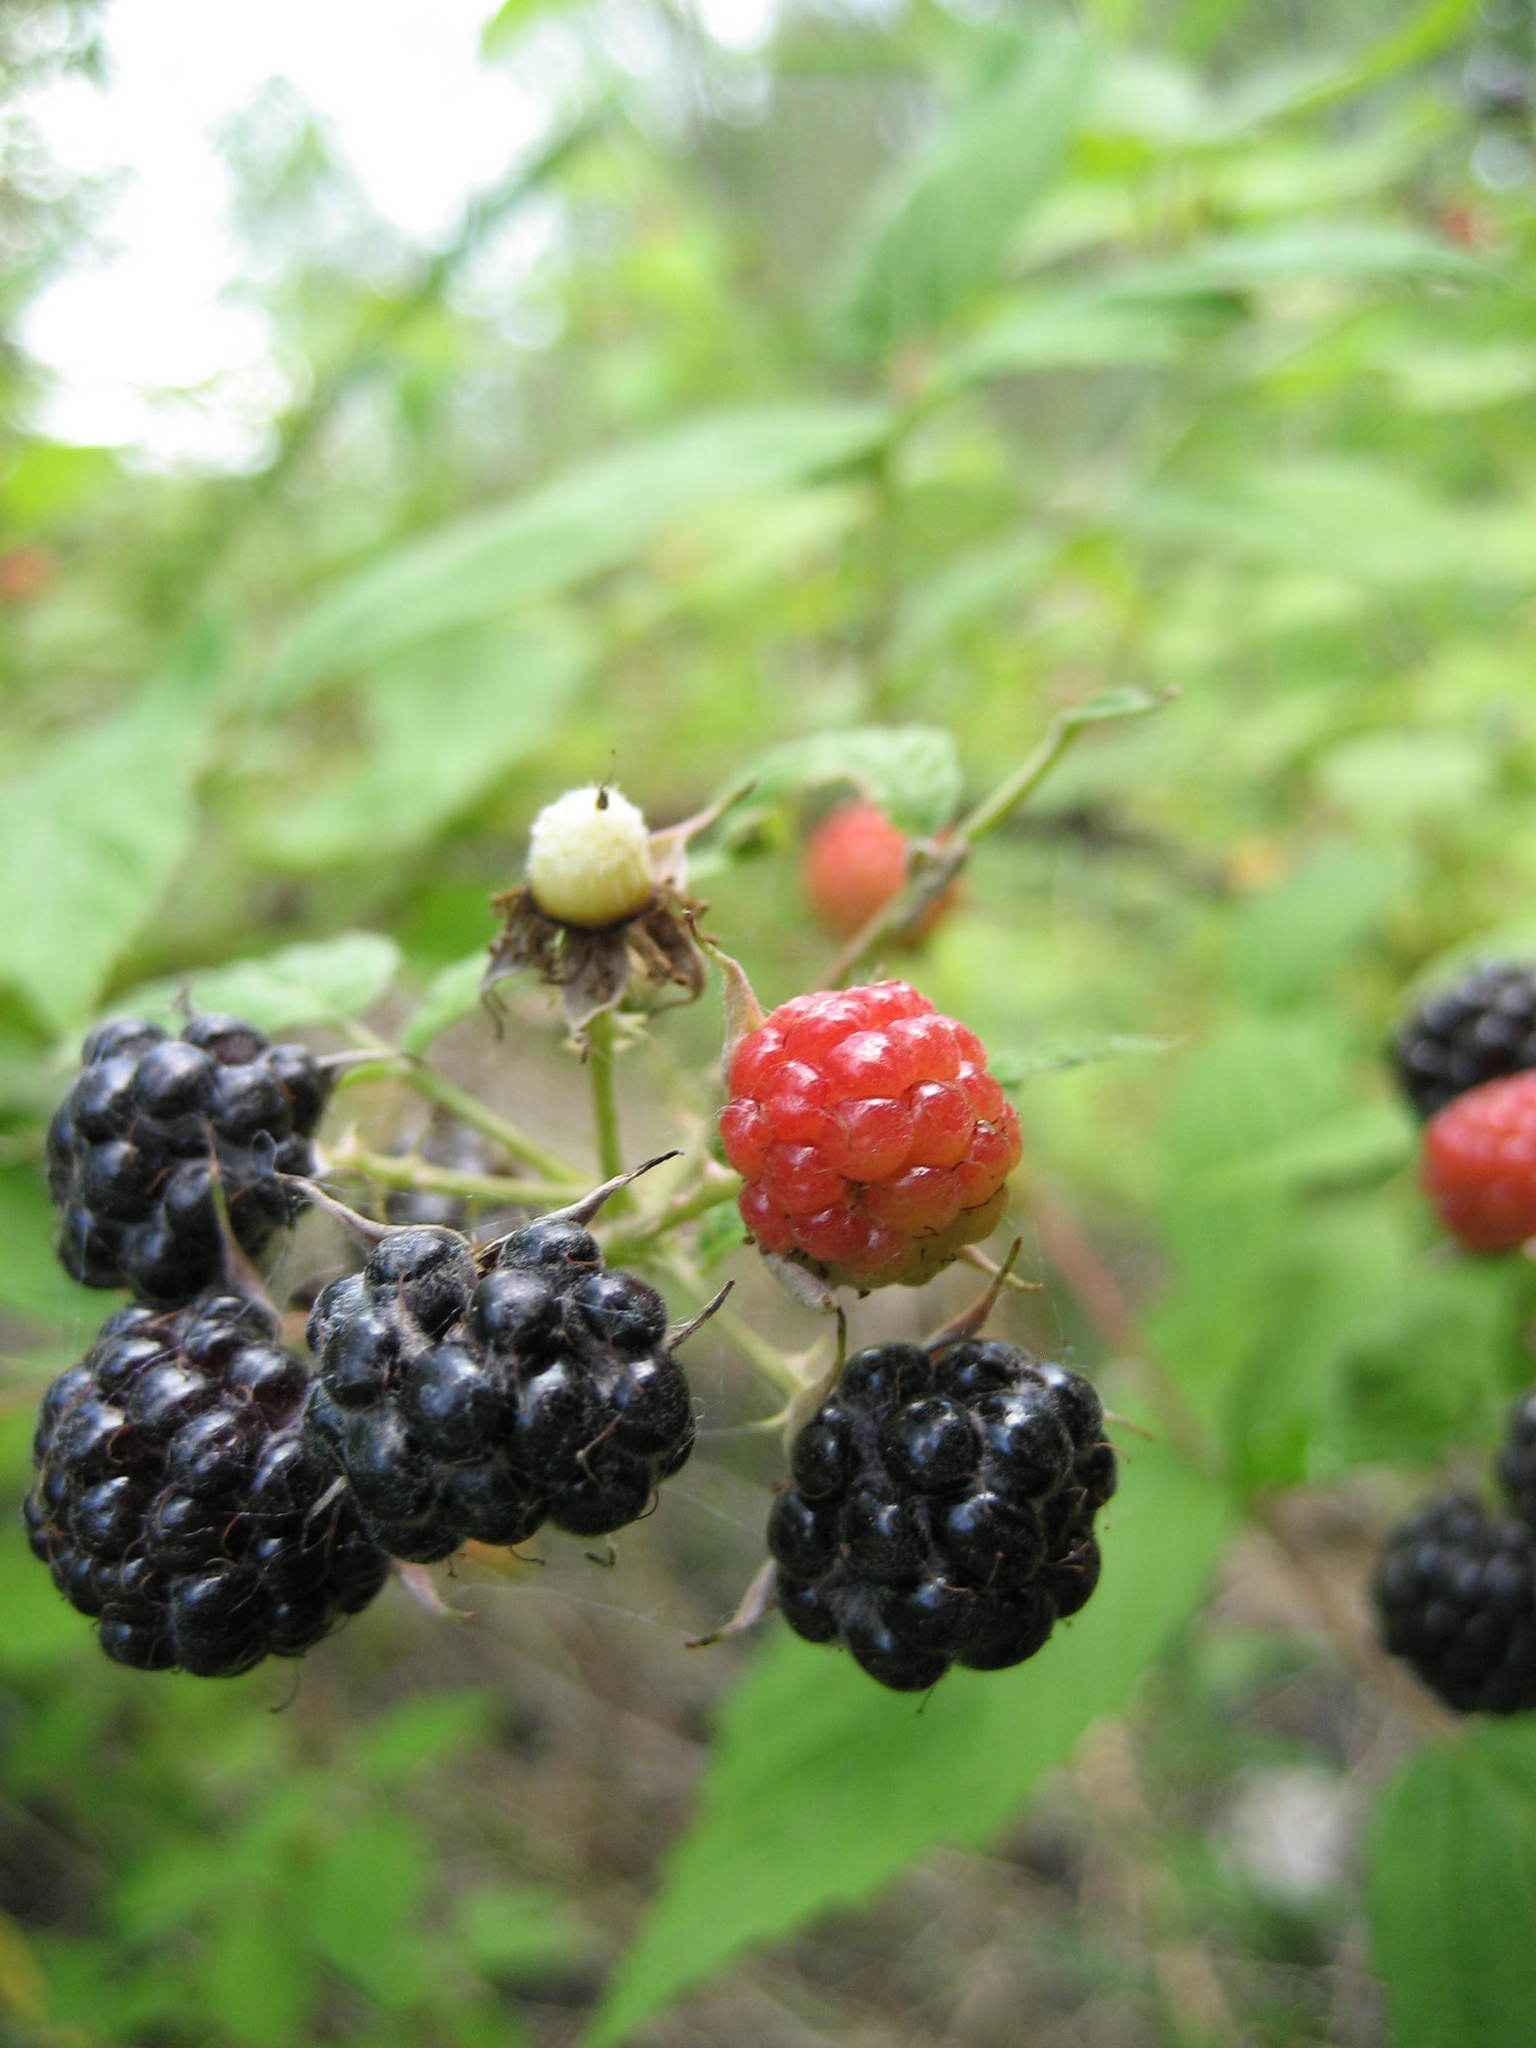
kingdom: Plantae
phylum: Tracheophyta
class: Magnoliopsida
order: Rosales
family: Rosaceae
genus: Rubus
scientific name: Rubus occidentalis
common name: Black raspberry
